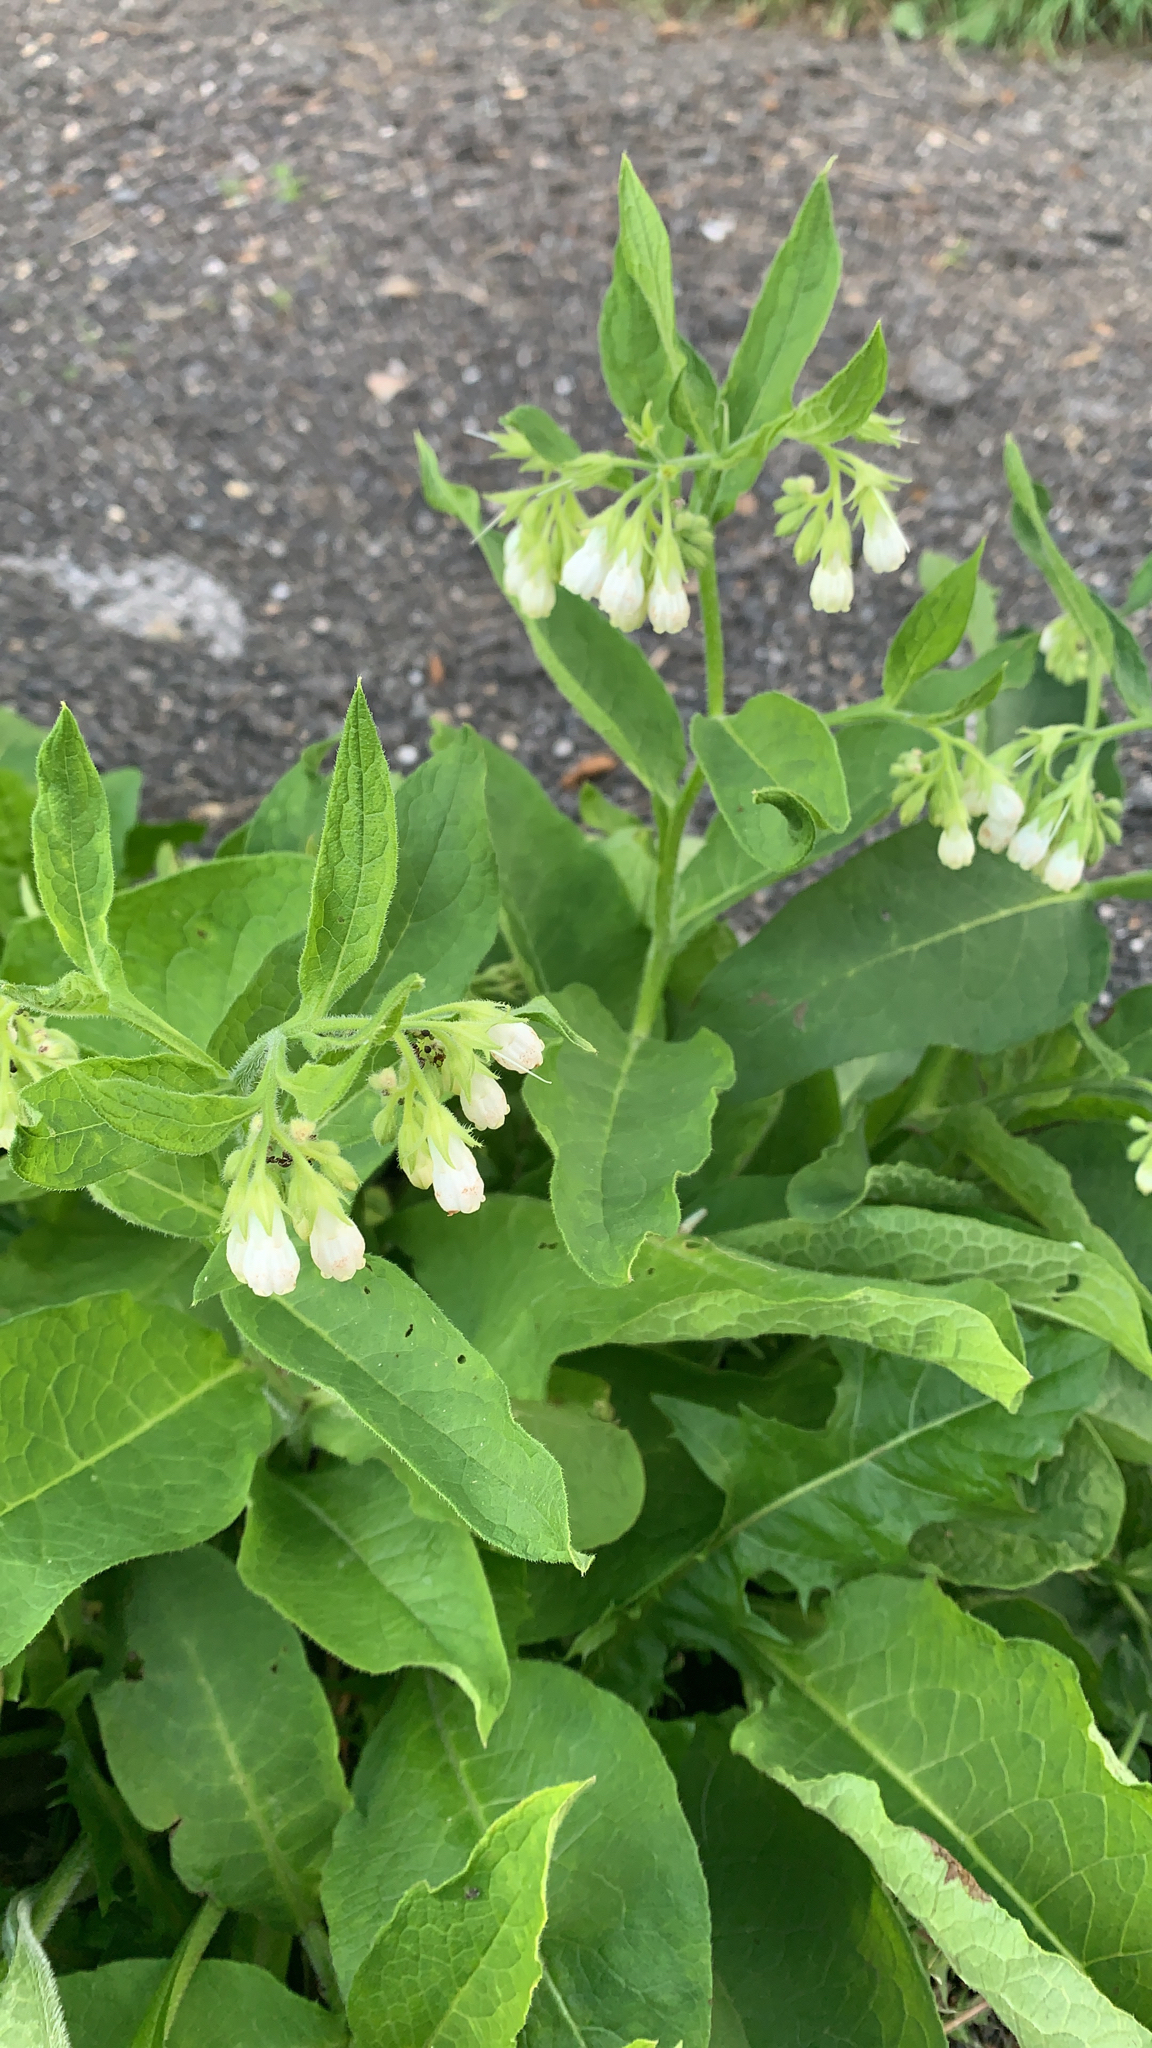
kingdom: Plantae
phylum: Tracheophyta
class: Magnoliopsida
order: Boraginales
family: Boraginaceae
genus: Symphytum
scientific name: Symphytum officinale
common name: Common comfrey
